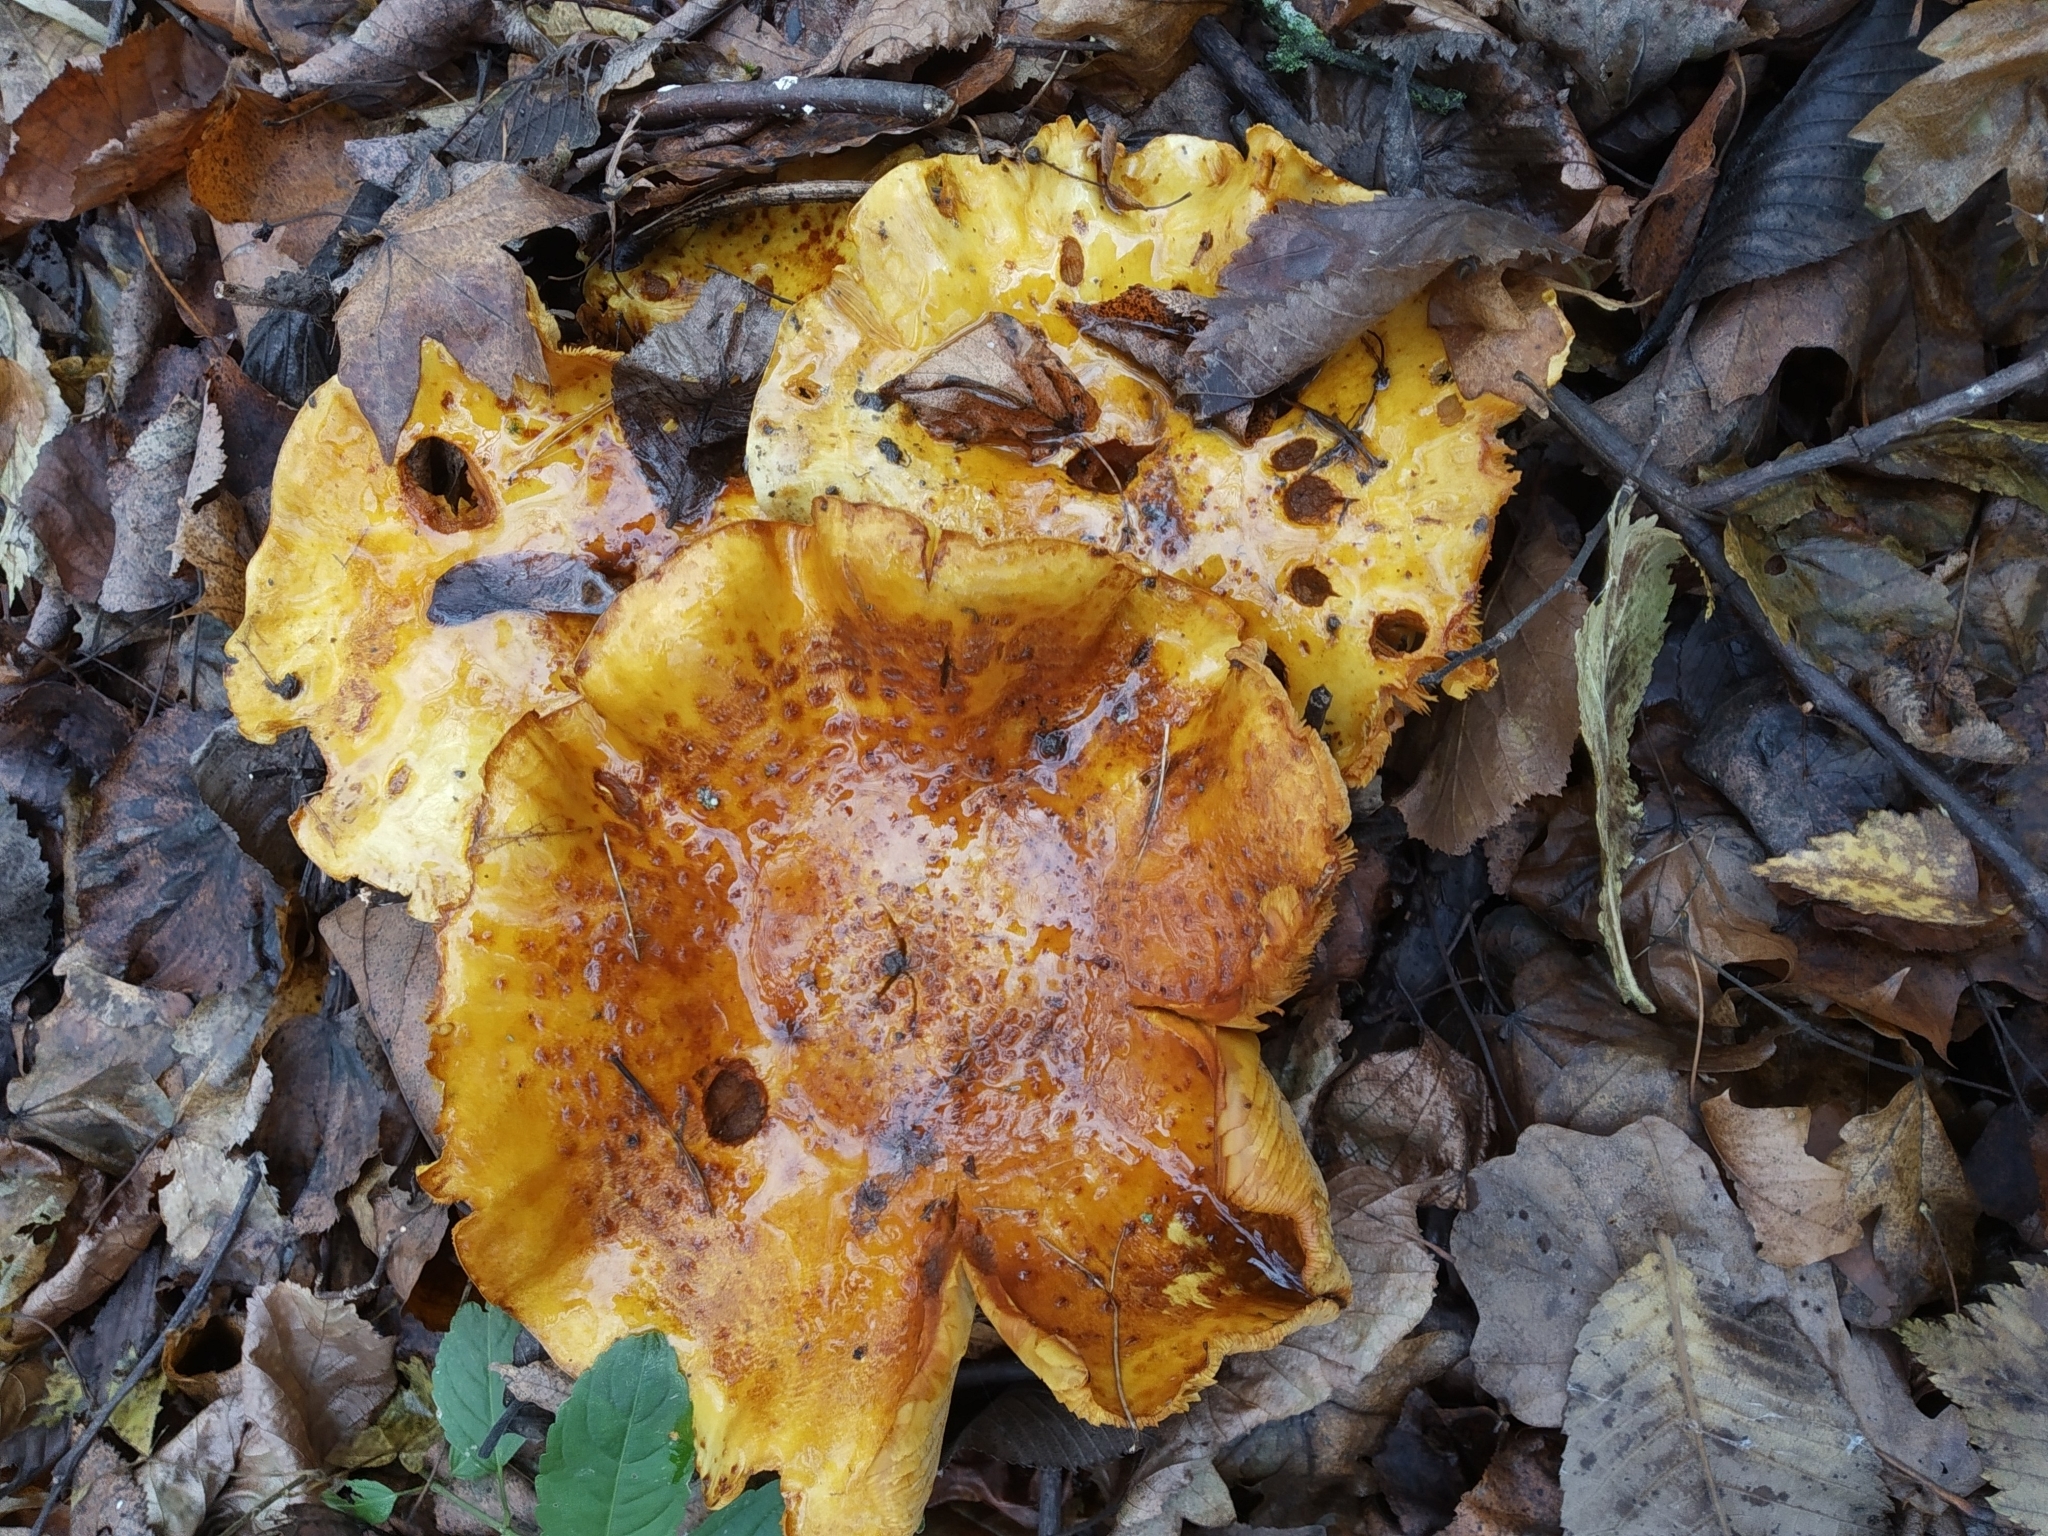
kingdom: Fungi
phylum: Basidiomycota
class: Agaricomycetes
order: Agaricales
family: Strophariaceae
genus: Pholiota
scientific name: Pholiota aurivella
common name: Golden scalycap
